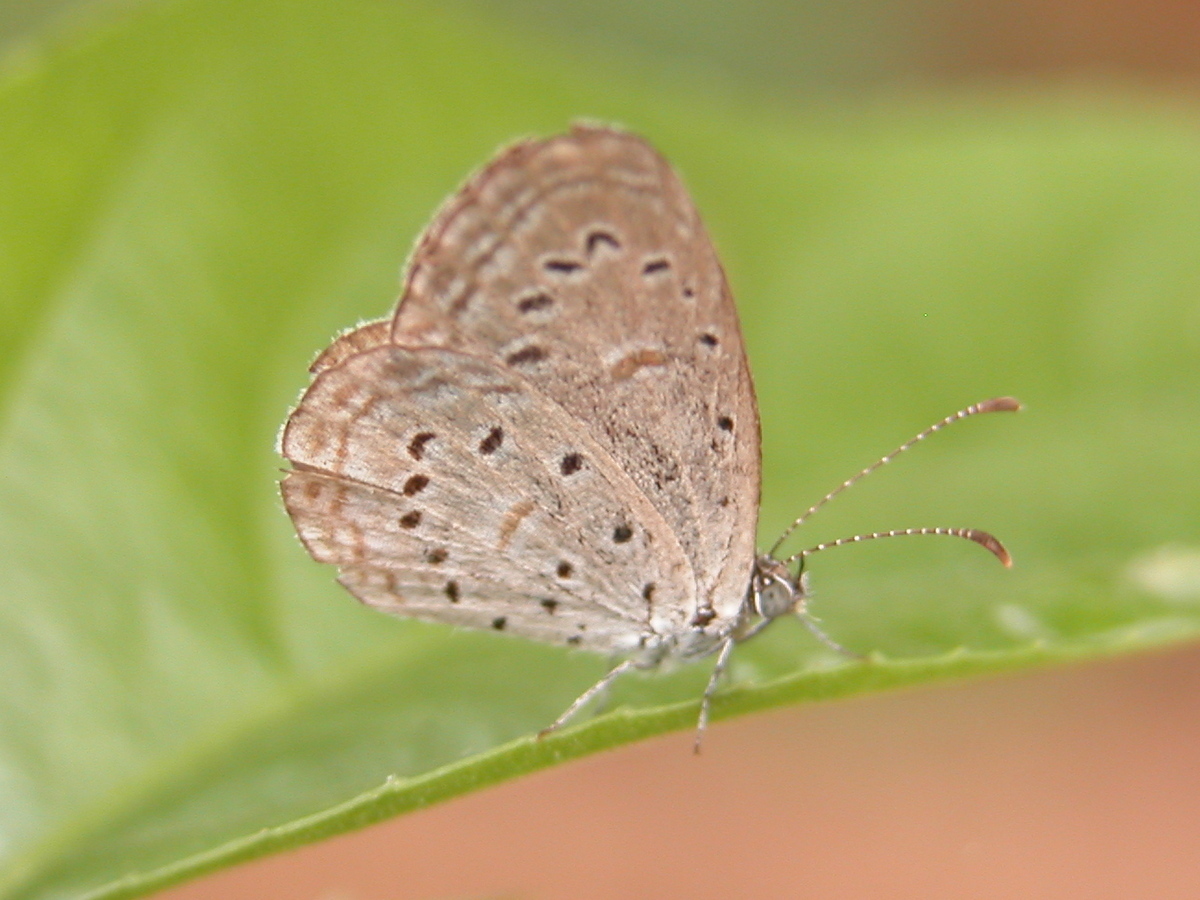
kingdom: Animalia
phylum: Arthropoda
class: Insecta
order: Lepidoptera
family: Lycaenidae
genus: Zizula
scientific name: Zizula hylax
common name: Gaika blue
